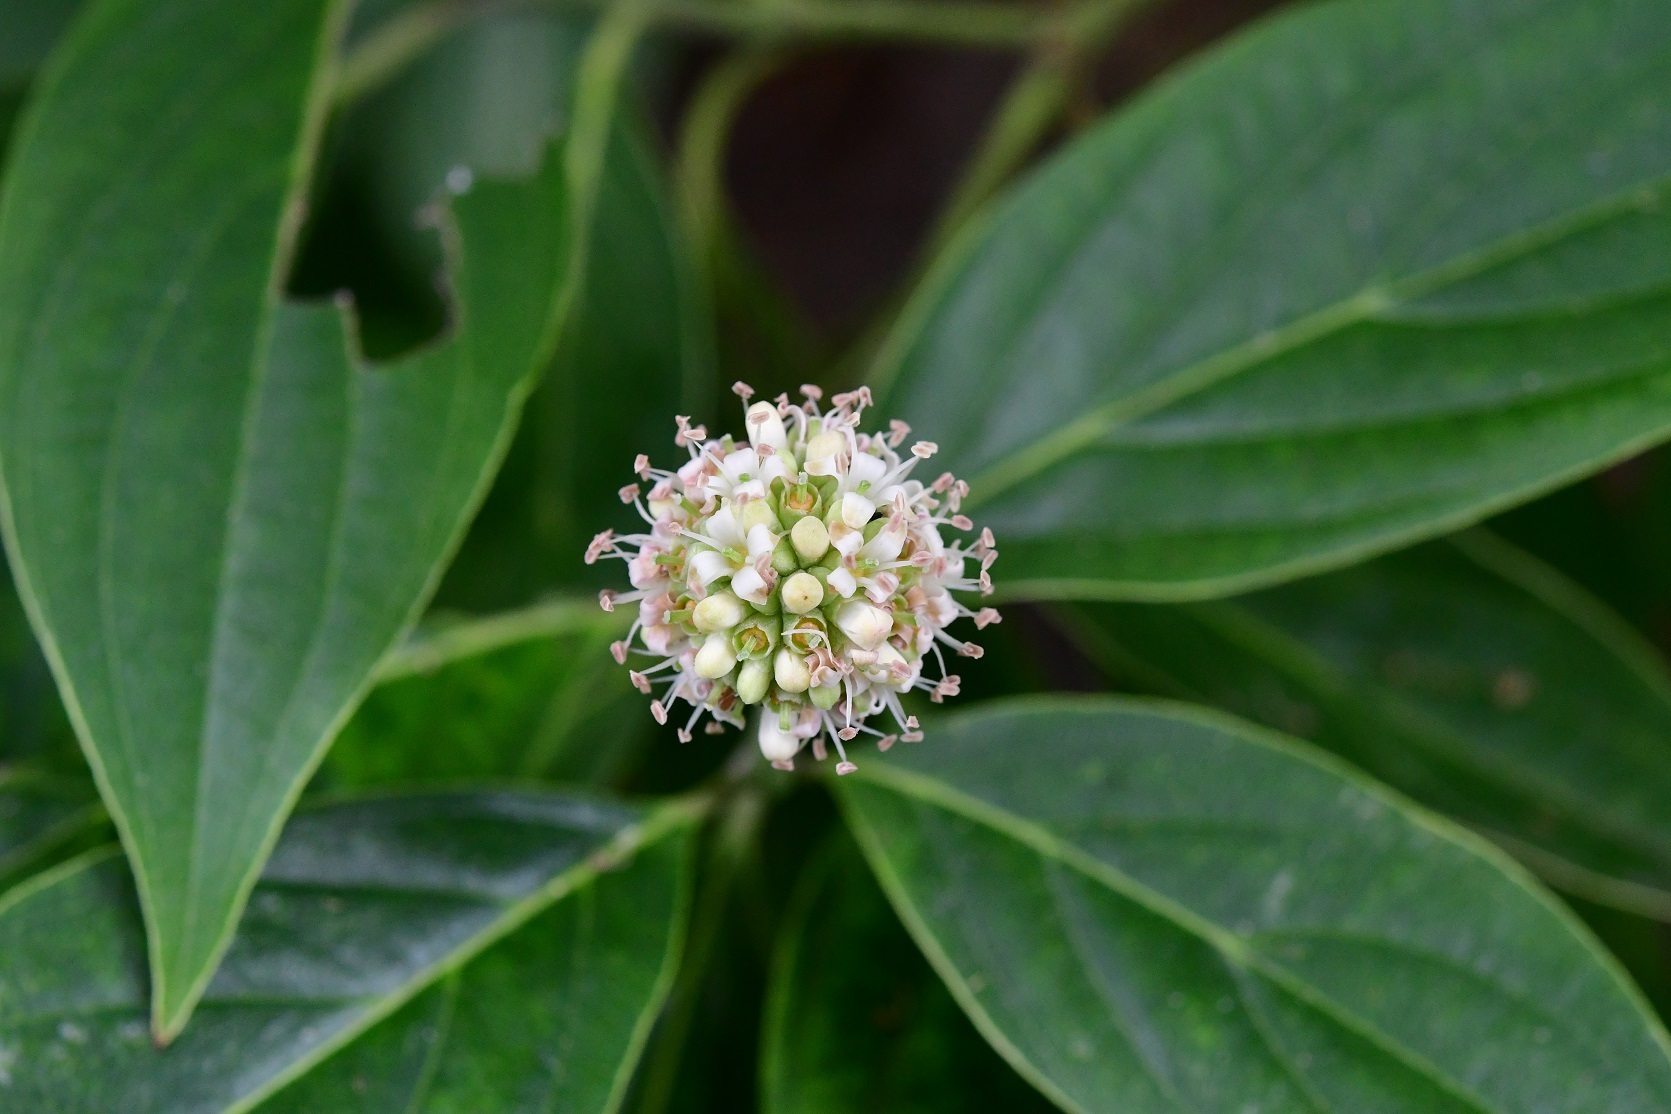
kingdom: Plantae
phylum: Tracheophyta
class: Magnoliopsida
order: Cornales
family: Cornaceae
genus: Cornus
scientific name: Cornus disciflora
